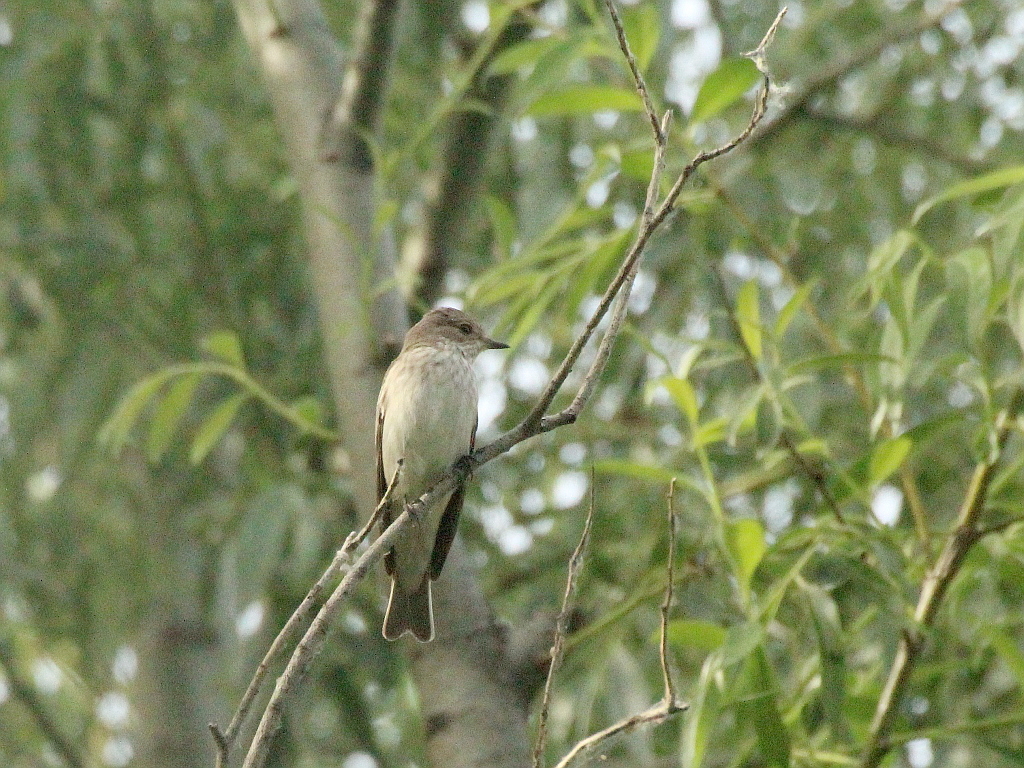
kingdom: Animalia
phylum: Chordata
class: Aves
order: Passeriformes
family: Muscicapidae
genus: Muscicapa
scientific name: Muscicapa striata
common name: Spotted flycatcher
